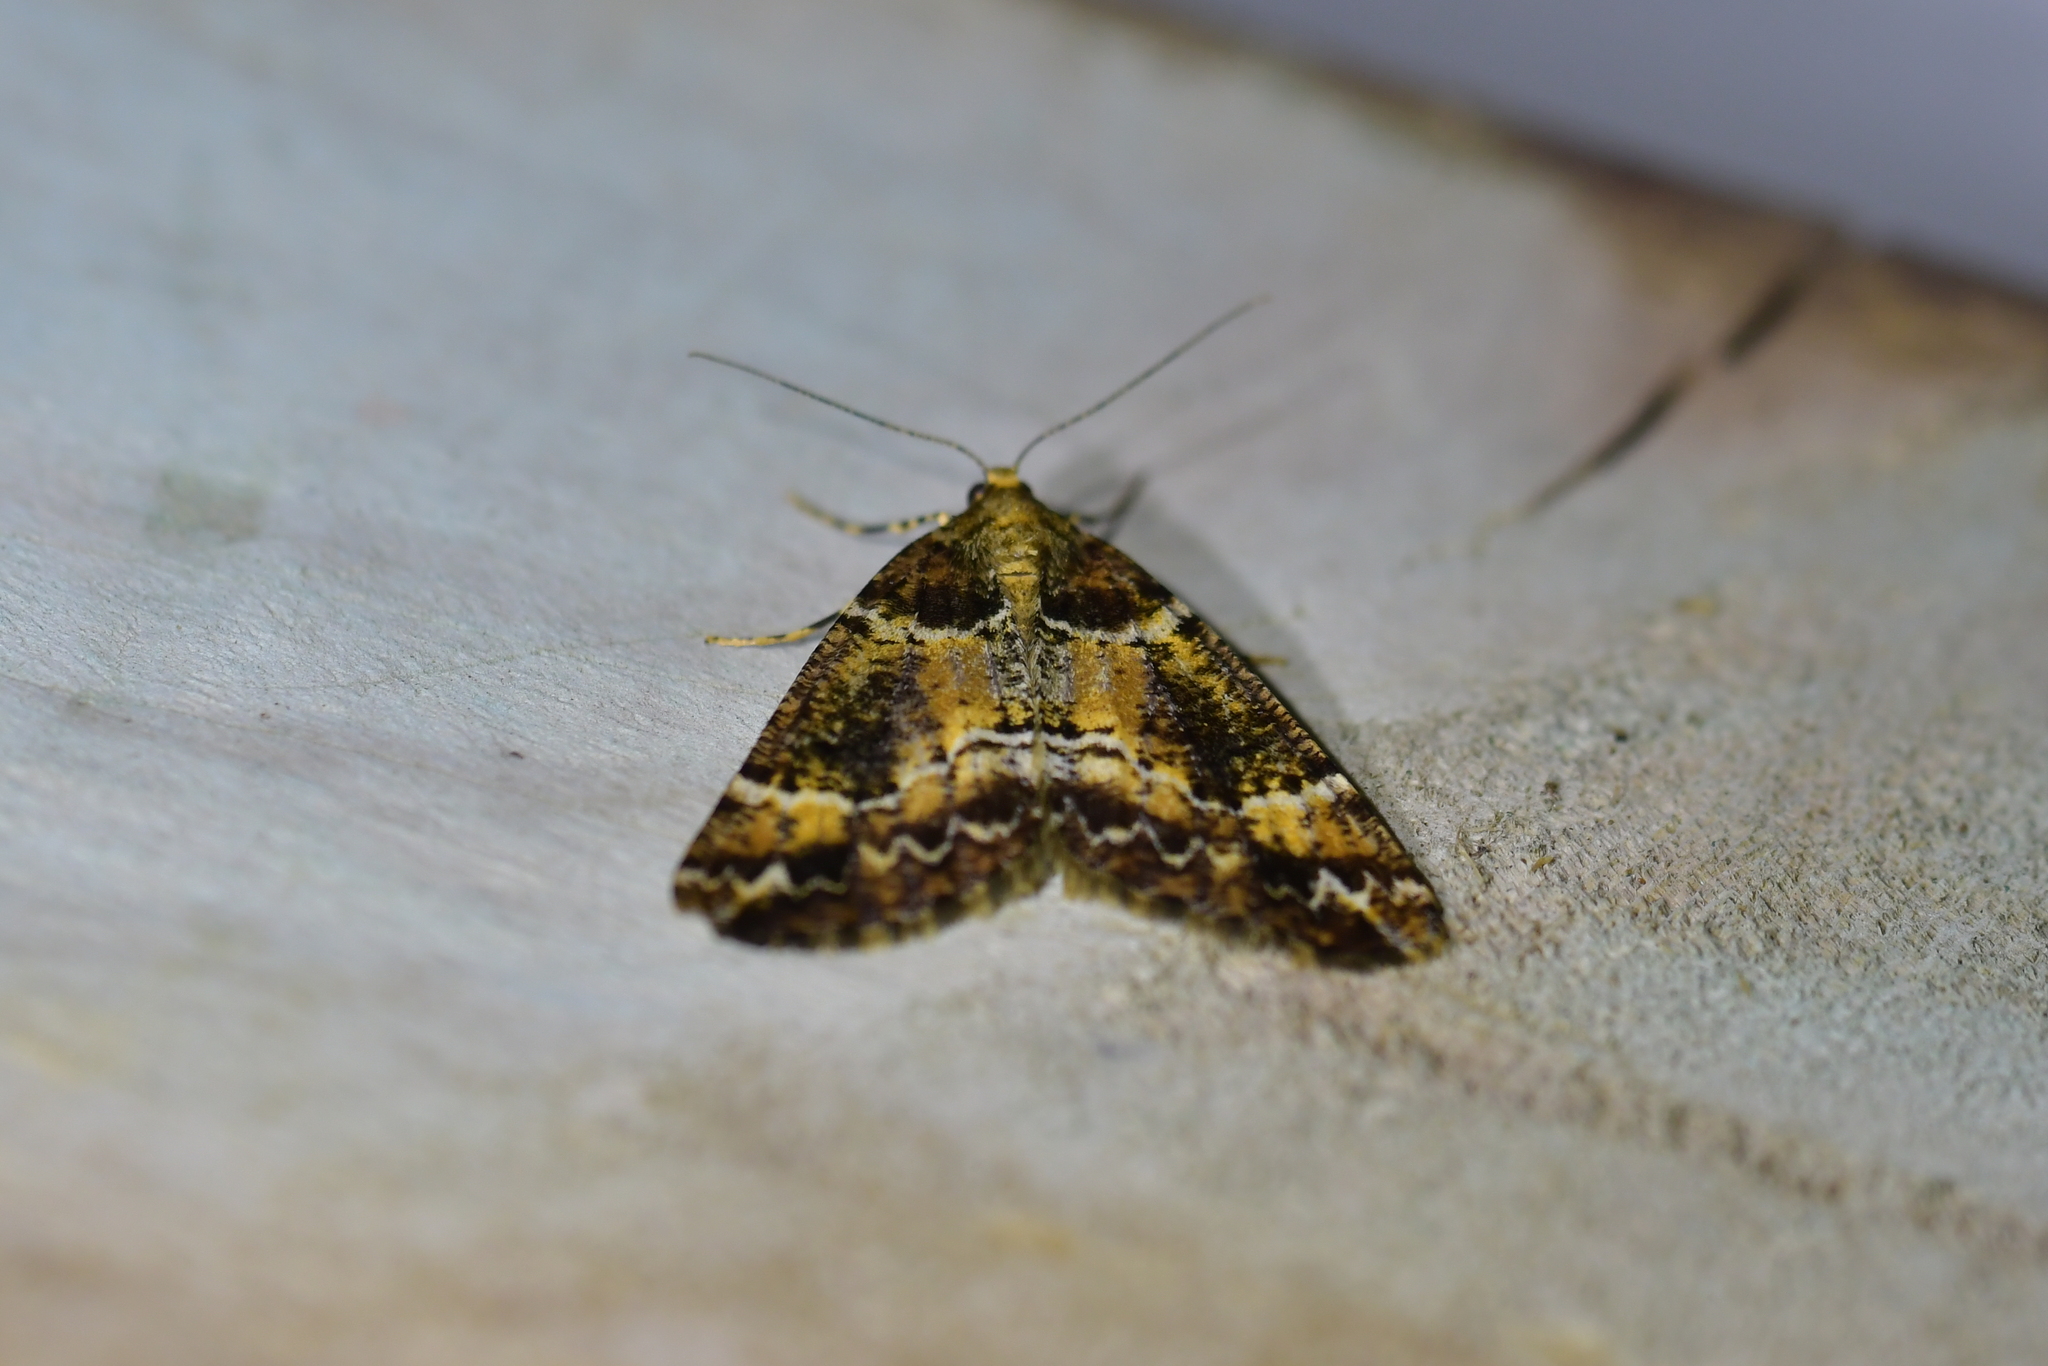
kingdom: Animalia
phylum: Arthropoda
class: Insecta
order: Lepidoptera
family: Geometridae
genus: Pseudocoremia
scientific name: Pseudocoremia productata
